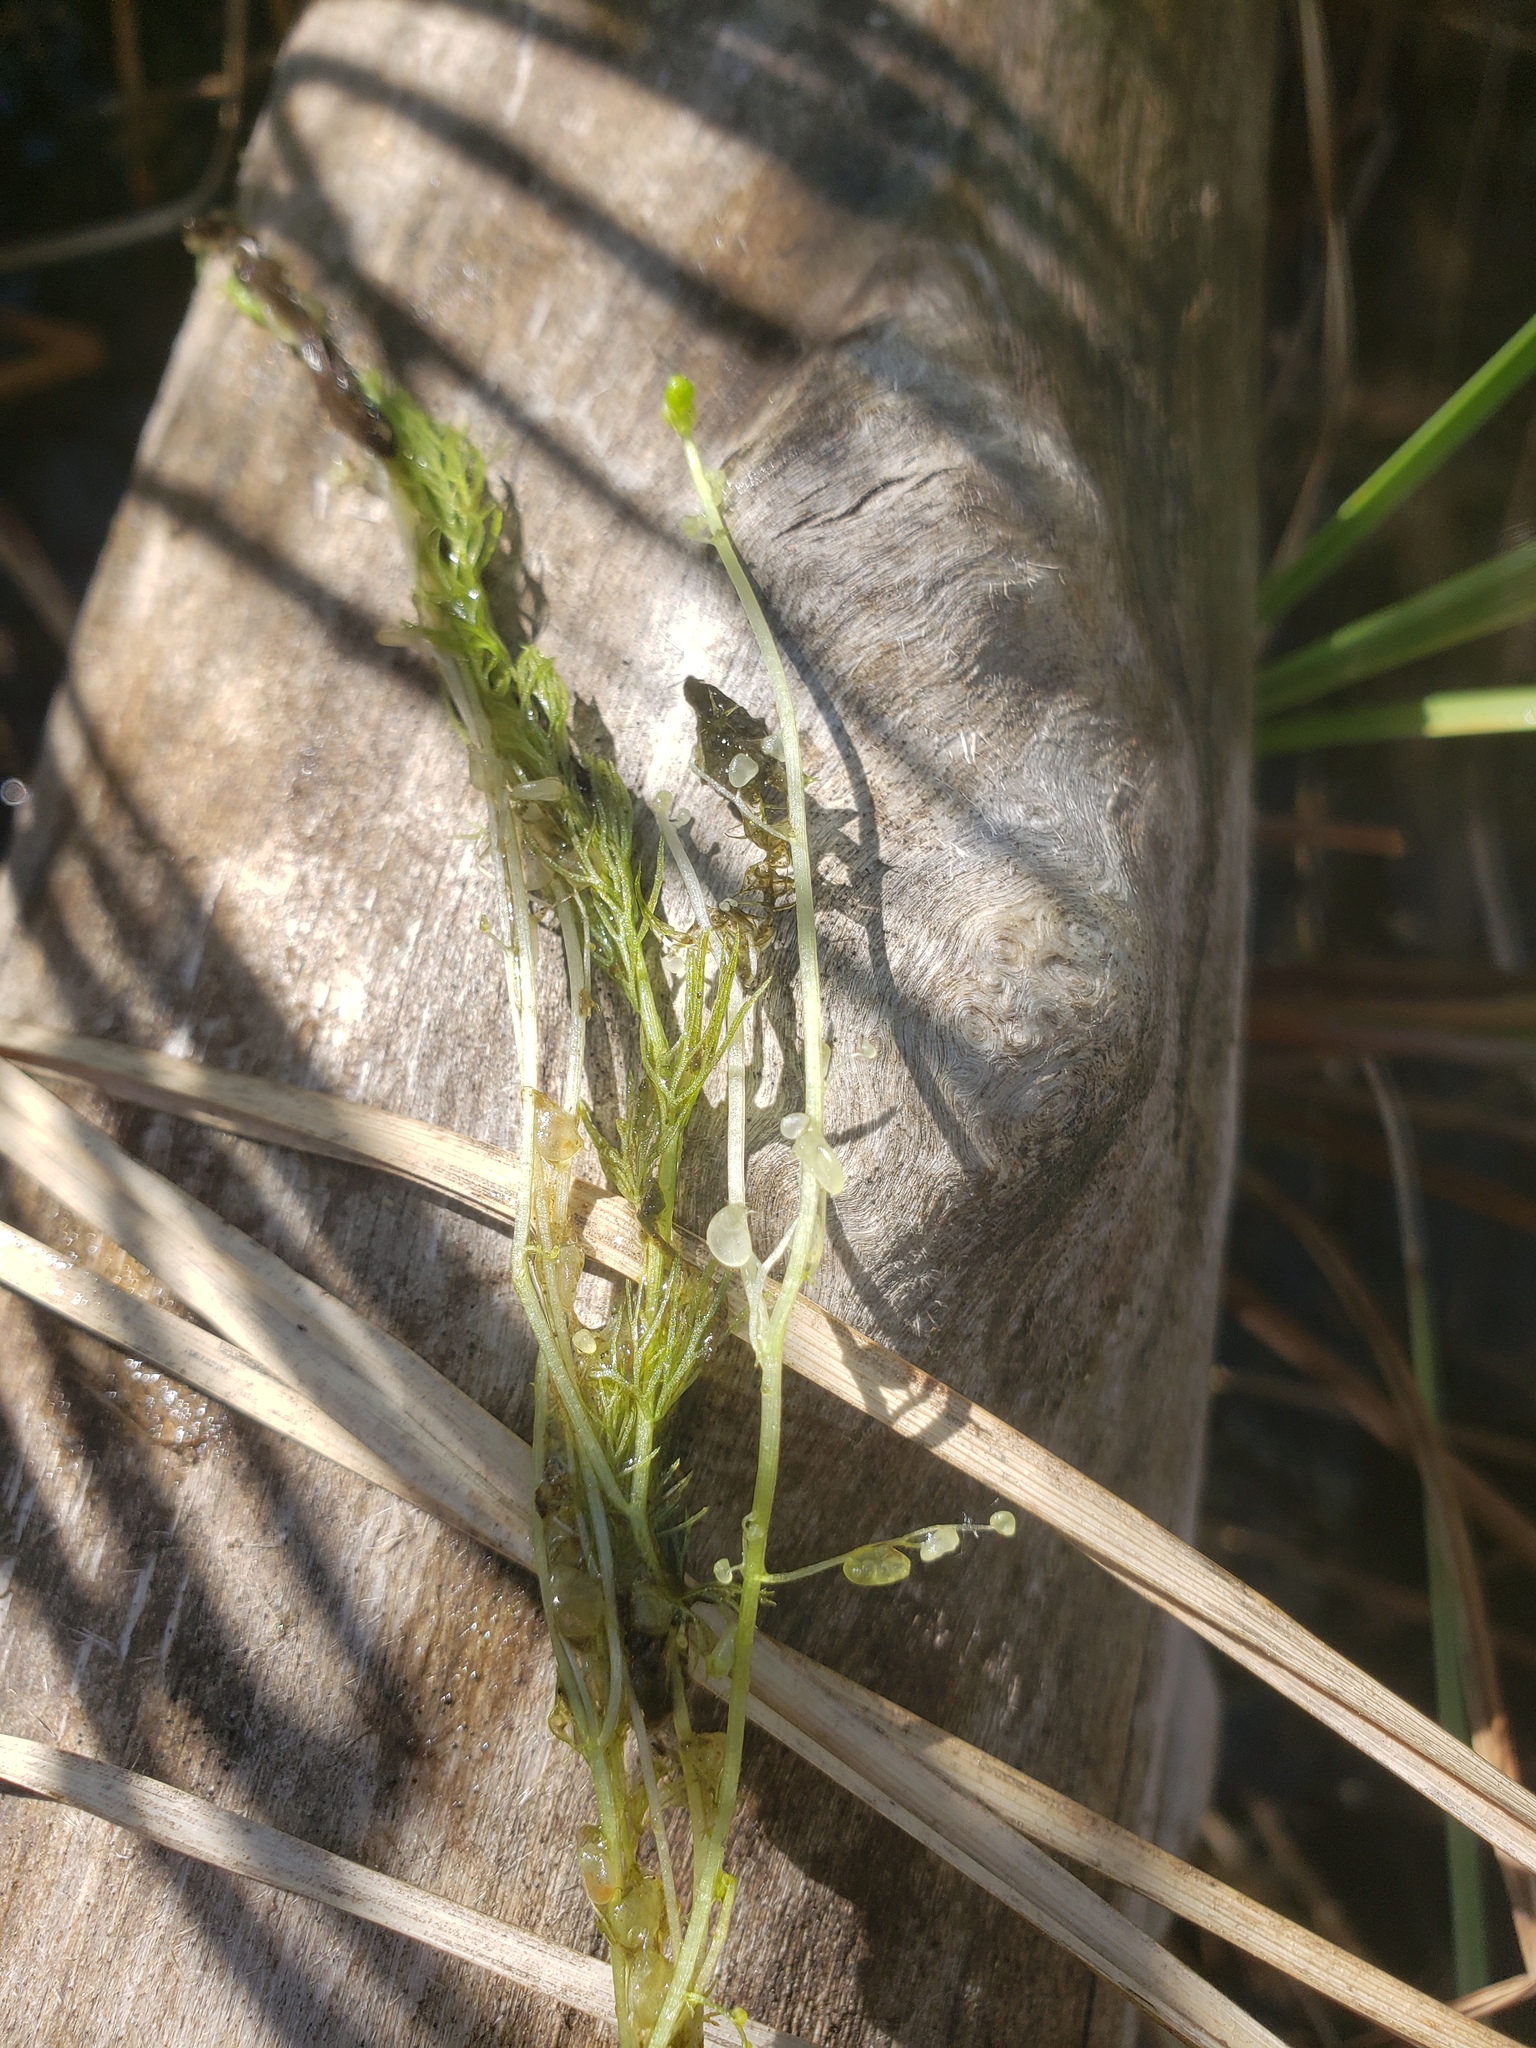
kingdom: Plantae
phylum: Tracheophyta
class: Magnoliopsida
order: Lamiales
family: Lentibulariaceae
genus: Utricularia
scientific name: Utricularia intermedia
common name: Intermediate bladderwort
